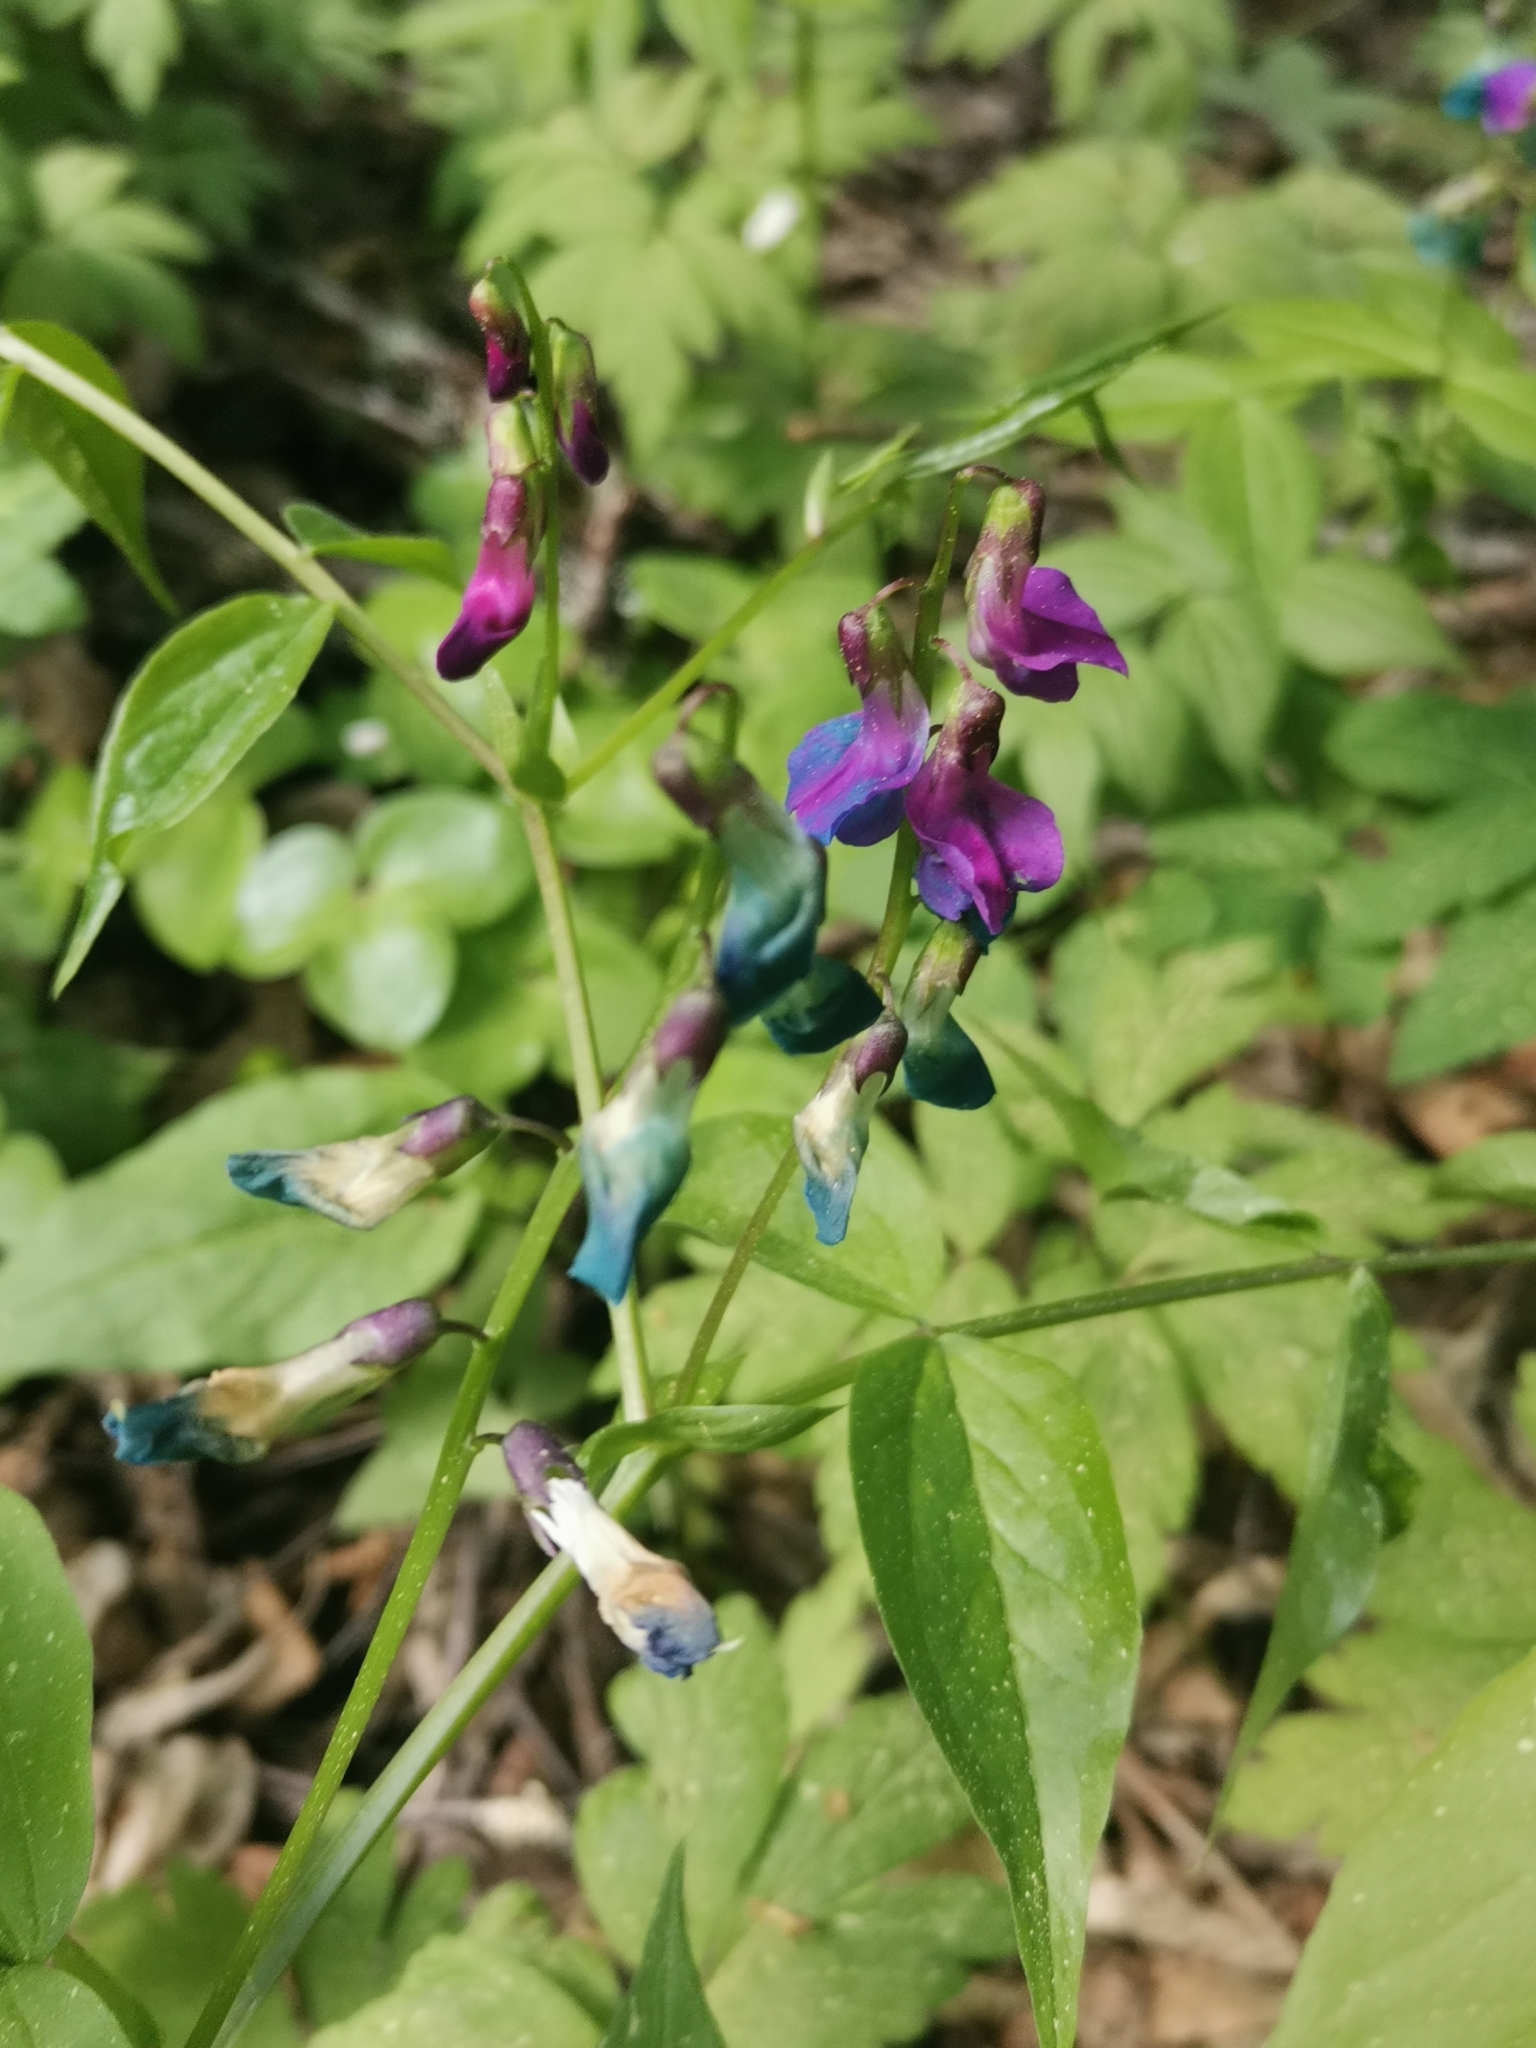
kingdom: Plantae
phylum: Tracheophyta
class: Magnoliopsida
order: Fabales
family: Fabaceae
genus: Lathyrus
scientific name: Lathyrus vernus
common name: Spring pea
